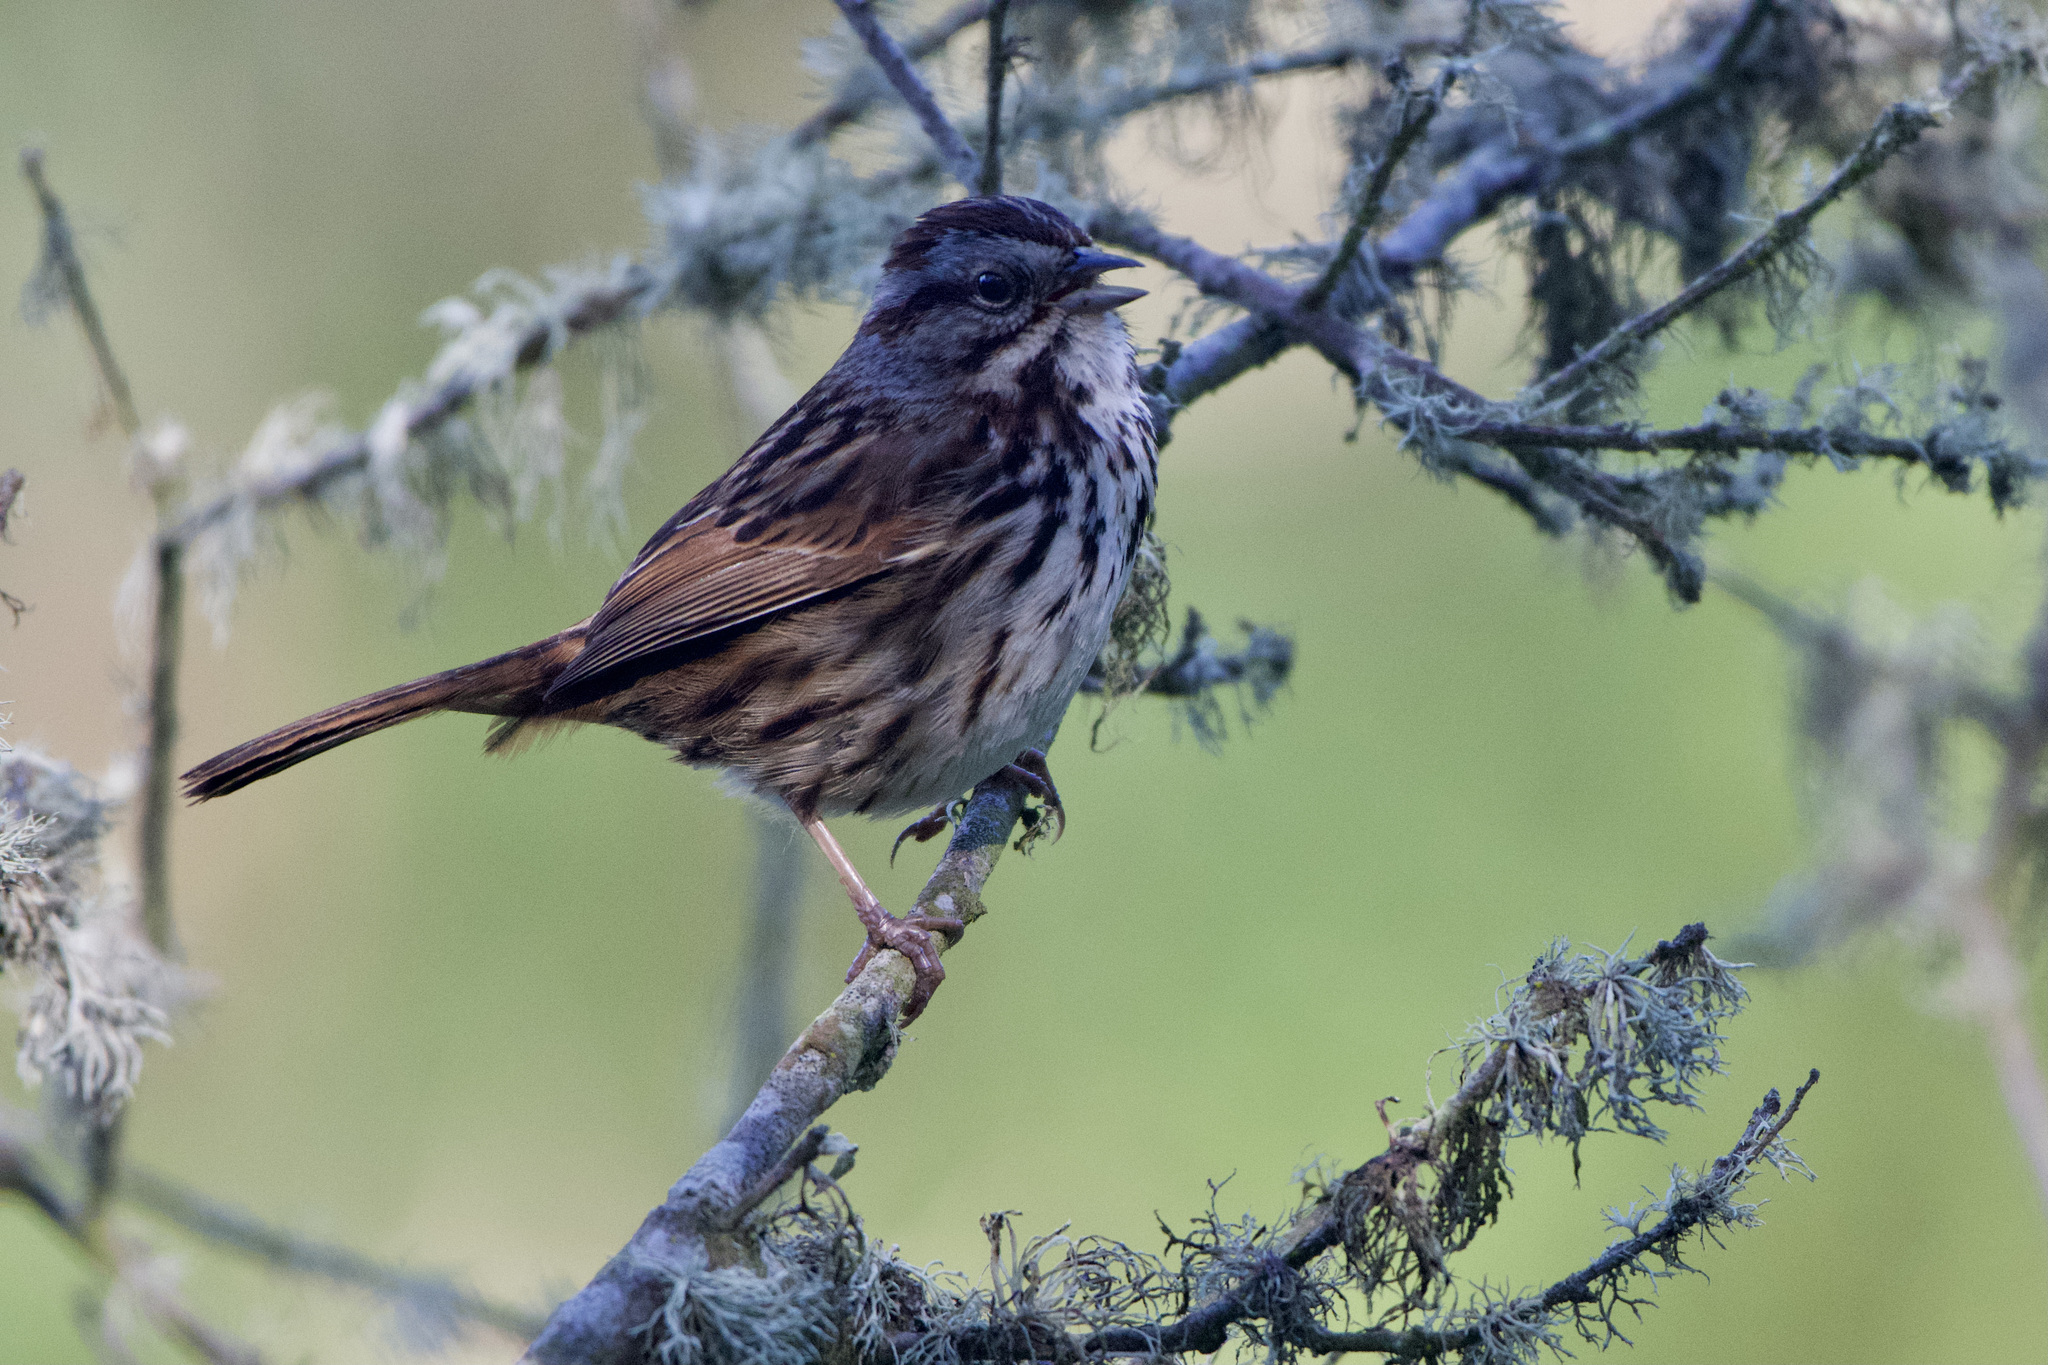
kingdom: Animalia
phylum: Chordata
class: Aves
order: Passeriformes
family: Passerellidae
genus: Melospiza
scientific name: Melospiza melodia
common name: Song sparrow
